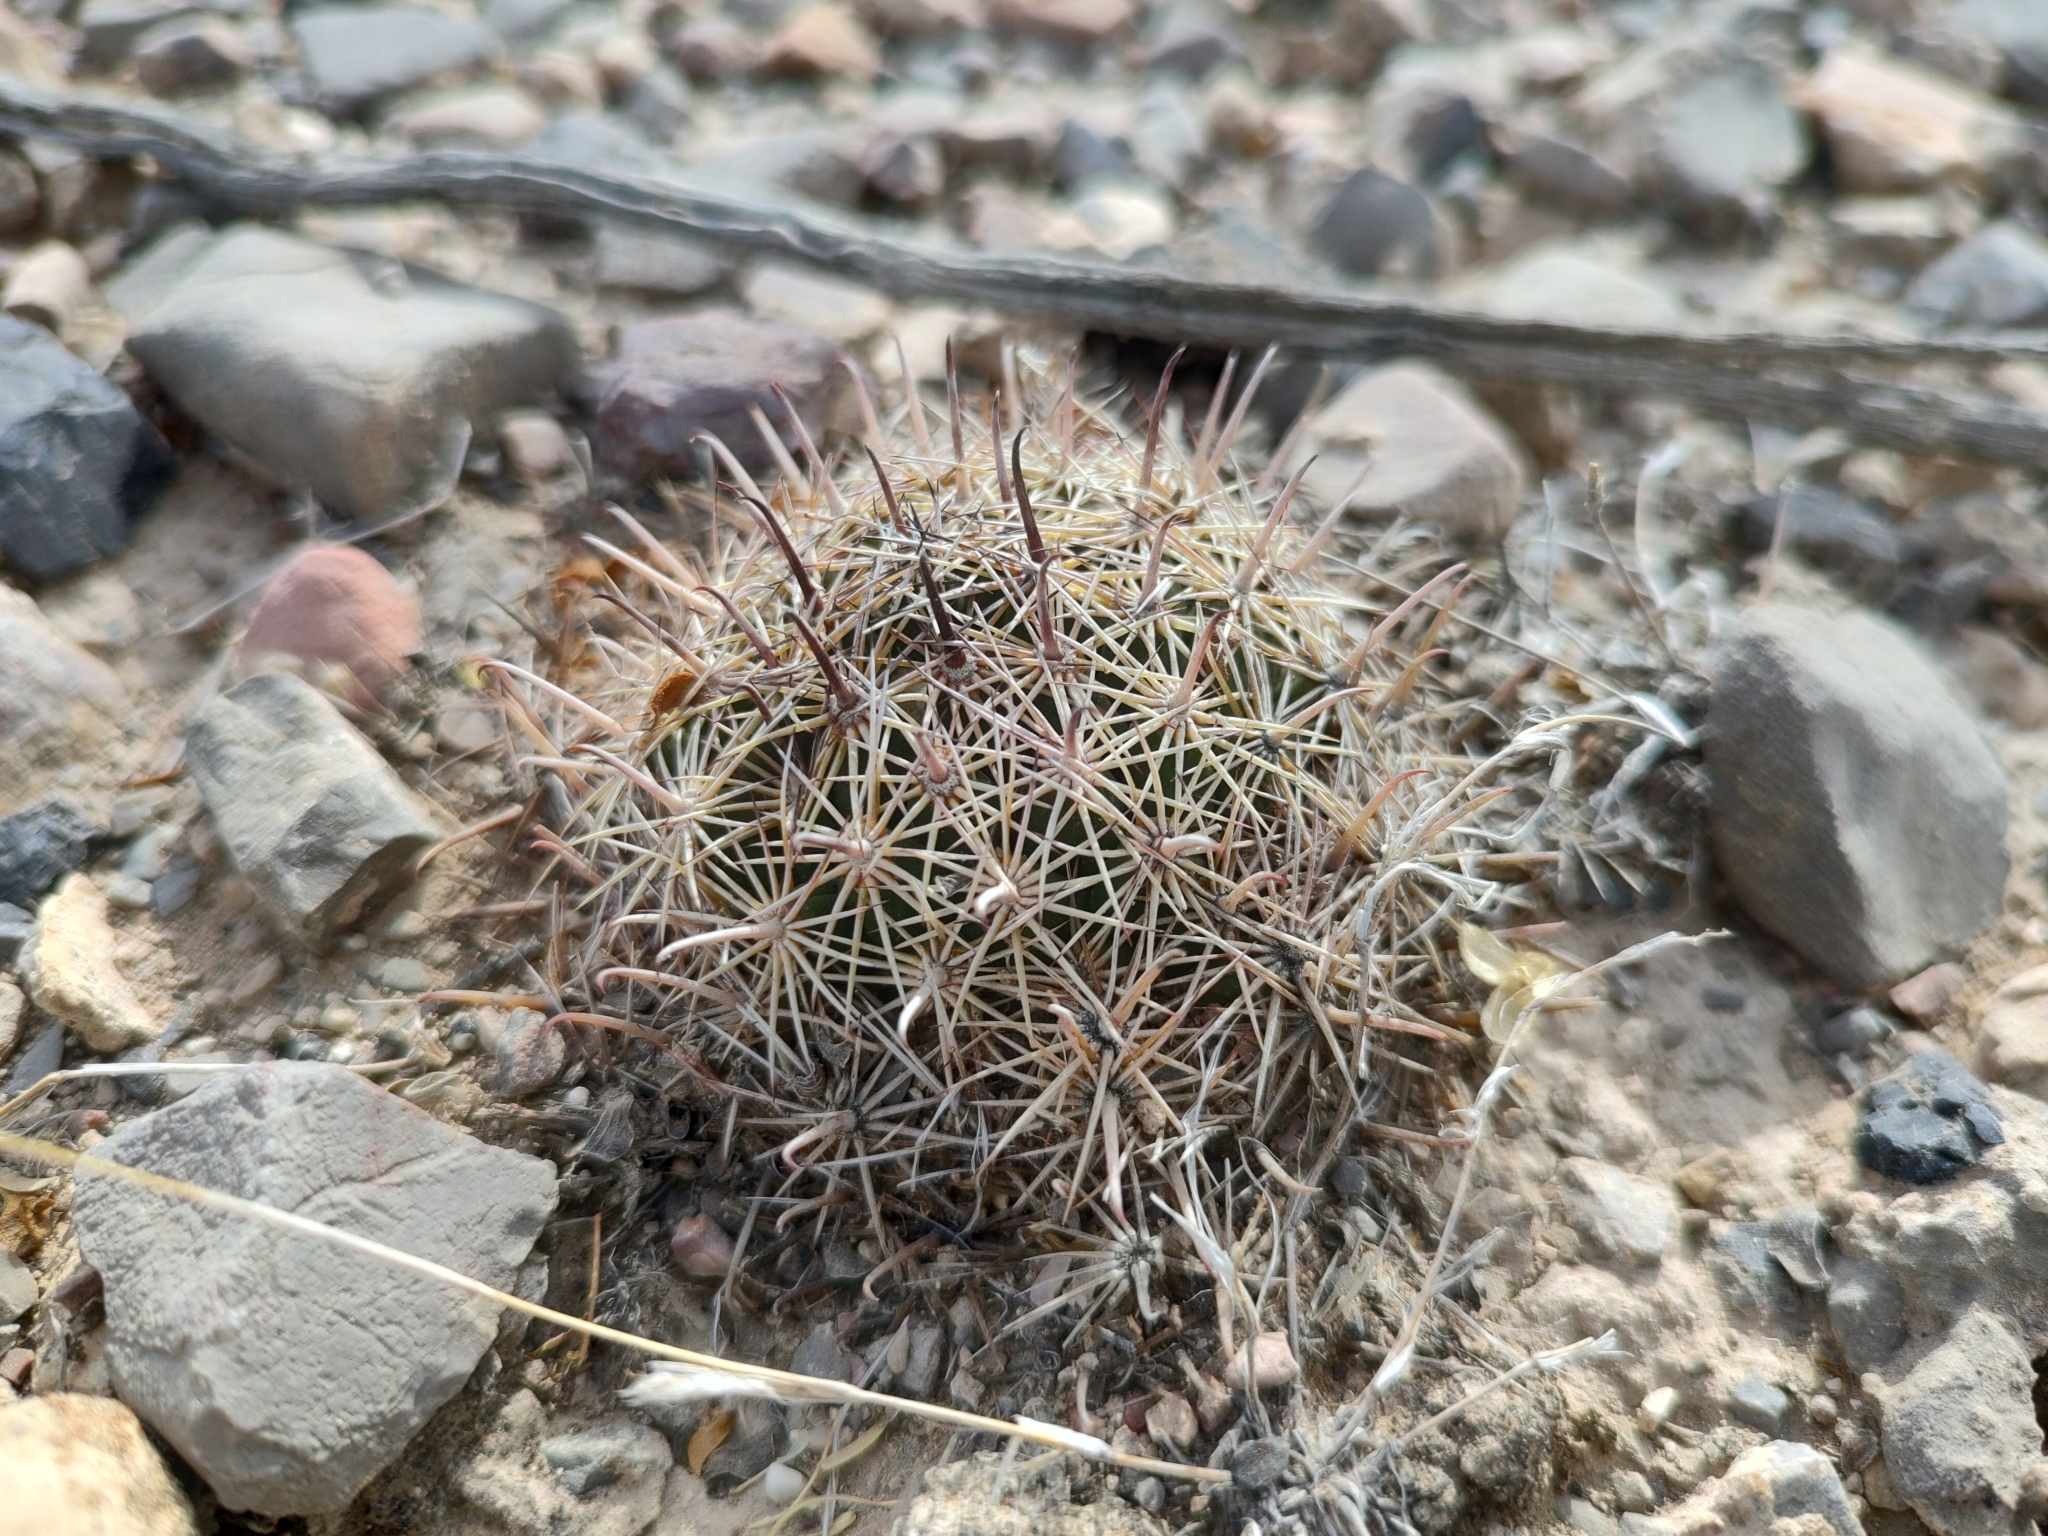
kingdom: Plantae
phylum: Tracheophyta
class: Magnoliopsida
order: Caryophyllales
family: Cactaceae
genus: Coryphantha
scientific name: Coryphantha delicata
